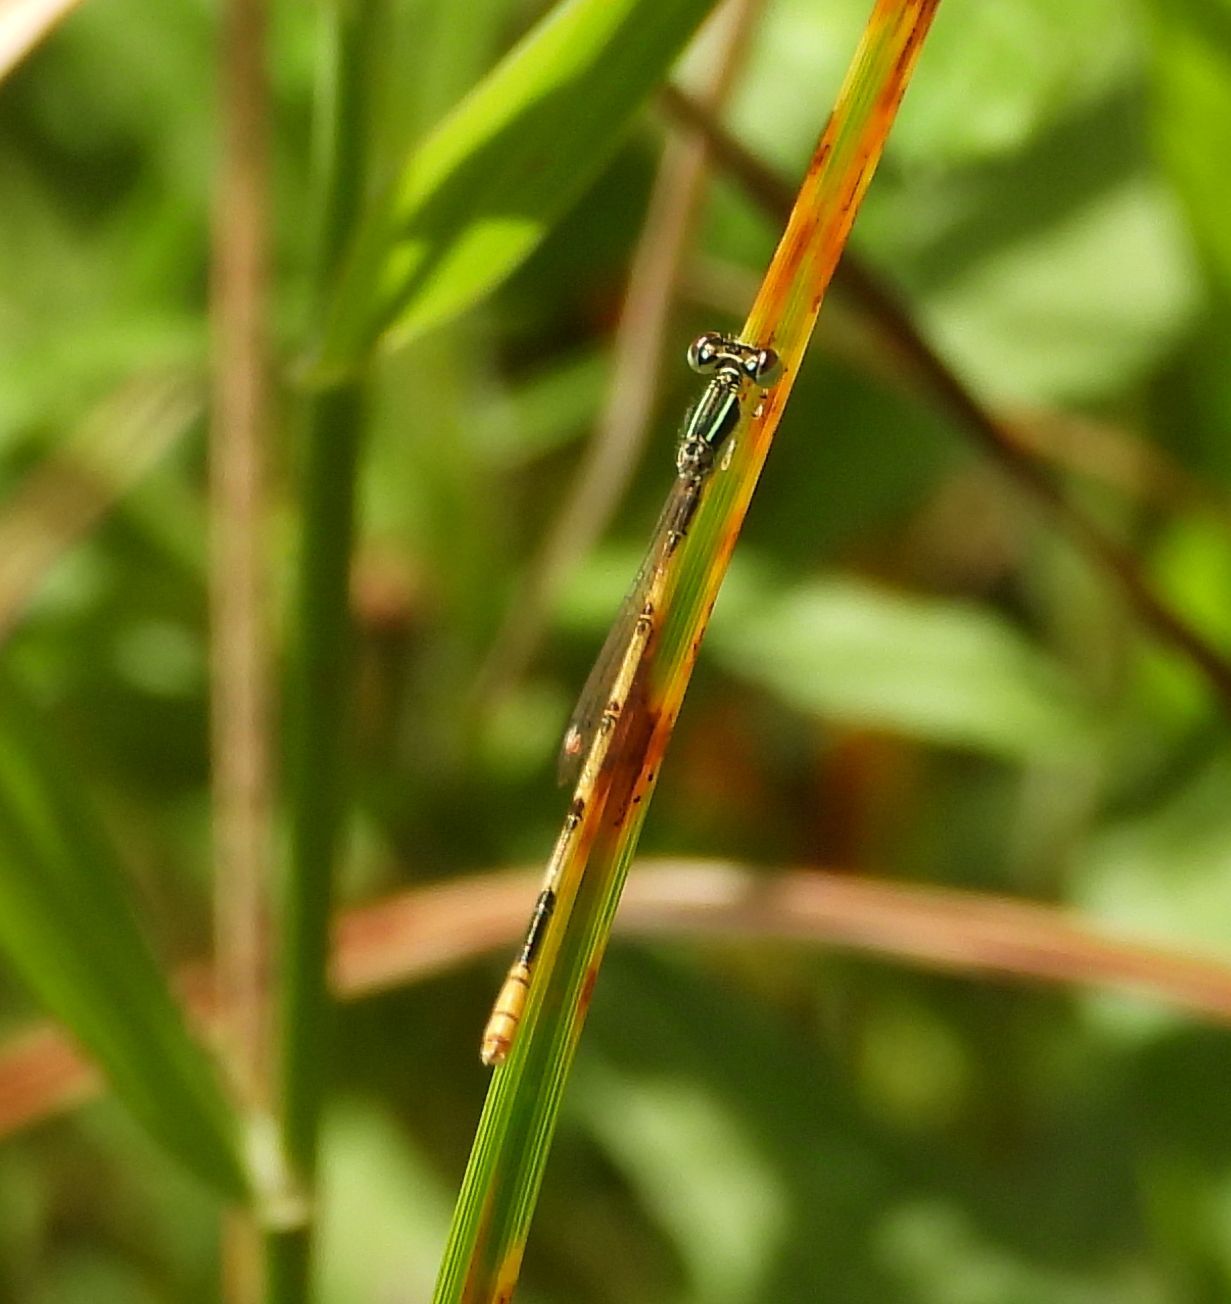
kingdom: Animalia
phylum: Arthropoda
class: Insecta
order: Odonata
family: Coenagrionidae
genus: Ischnura
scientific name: Ischnura hastata
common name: Citrine forktail
